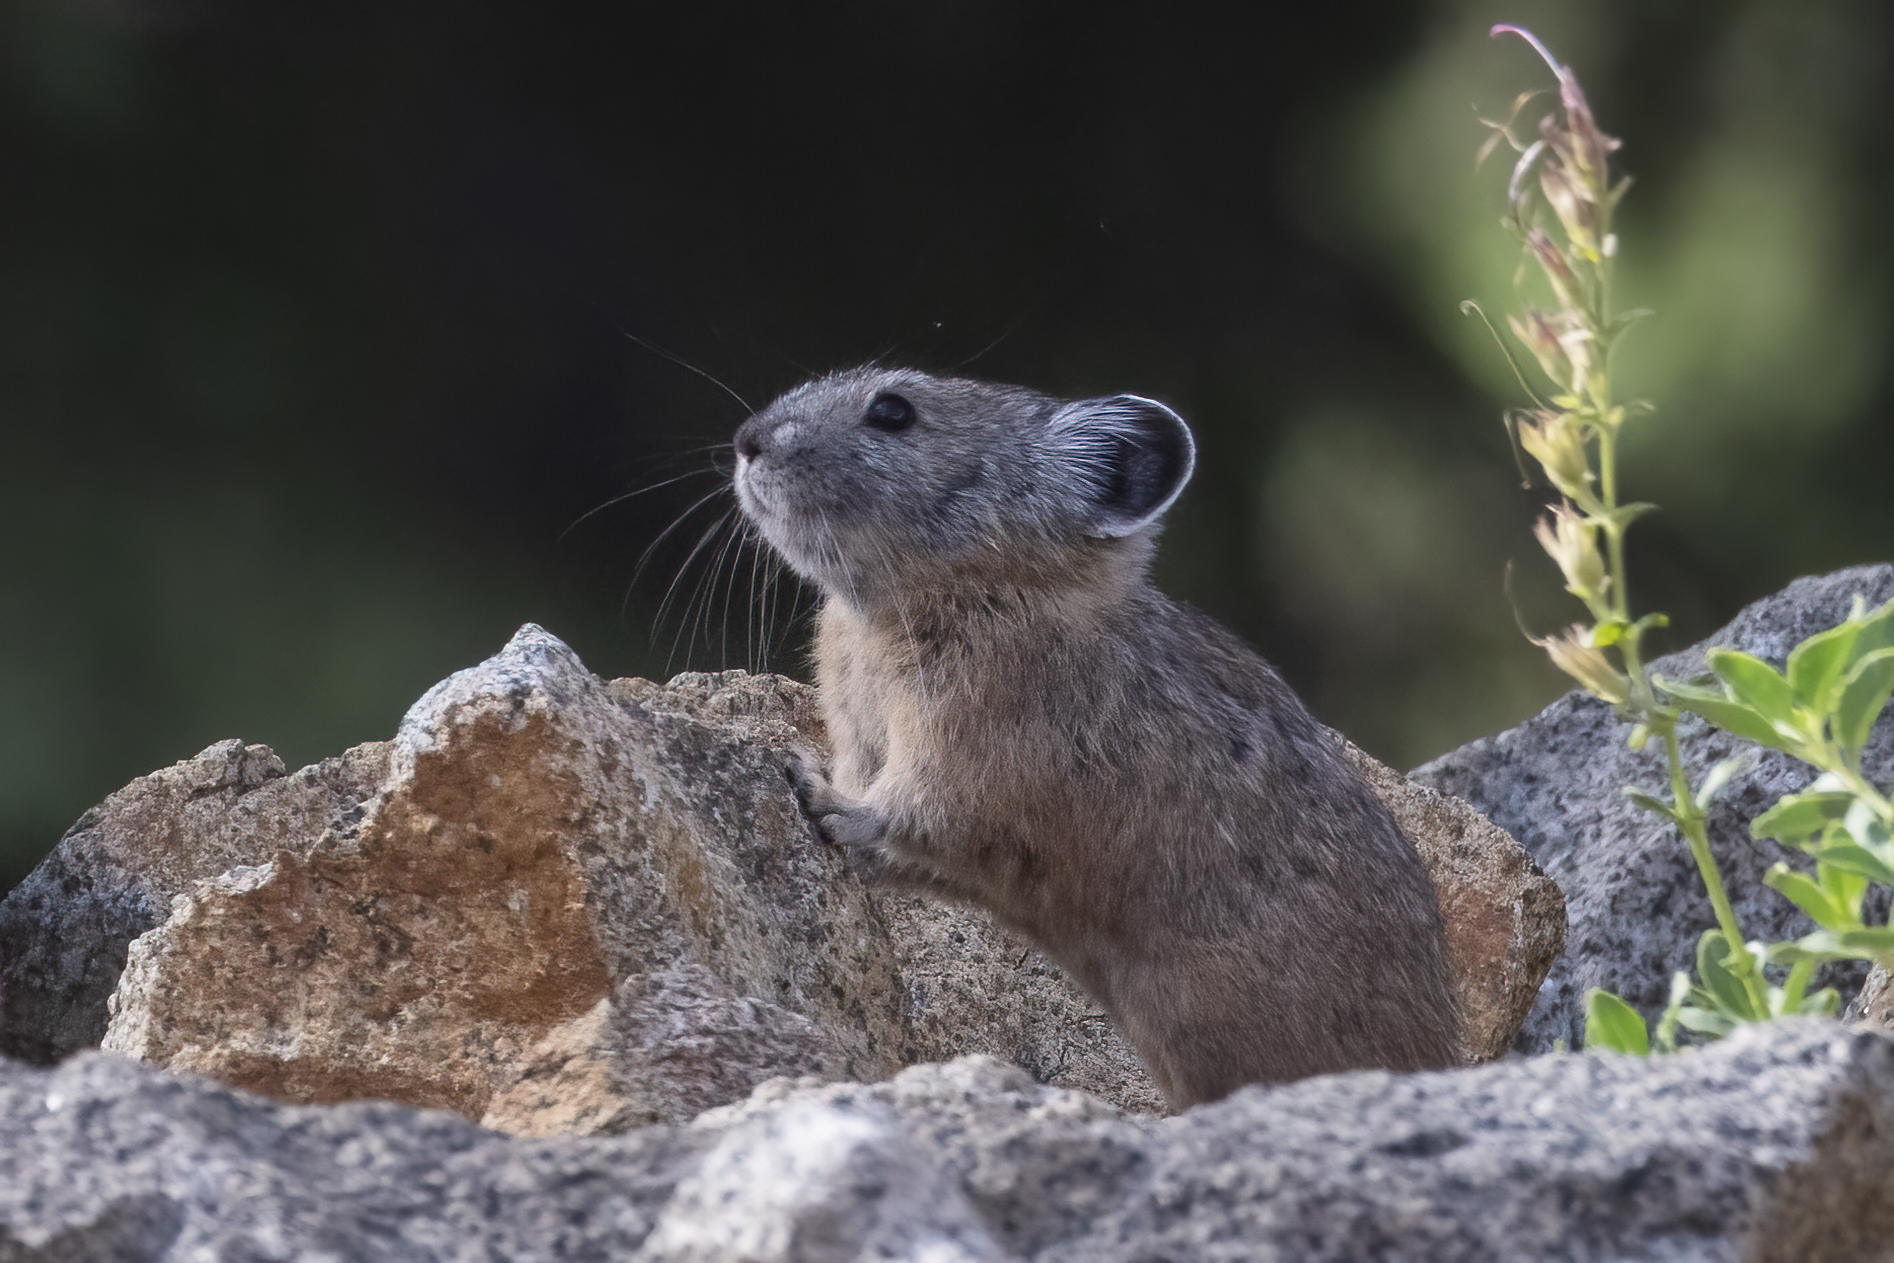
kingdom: Animalia
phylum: Chordata
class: Mammalia
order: Lagomorpha
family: Ochotonidae
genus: Ochotona
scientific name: Ochotona princeps
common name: American pika
